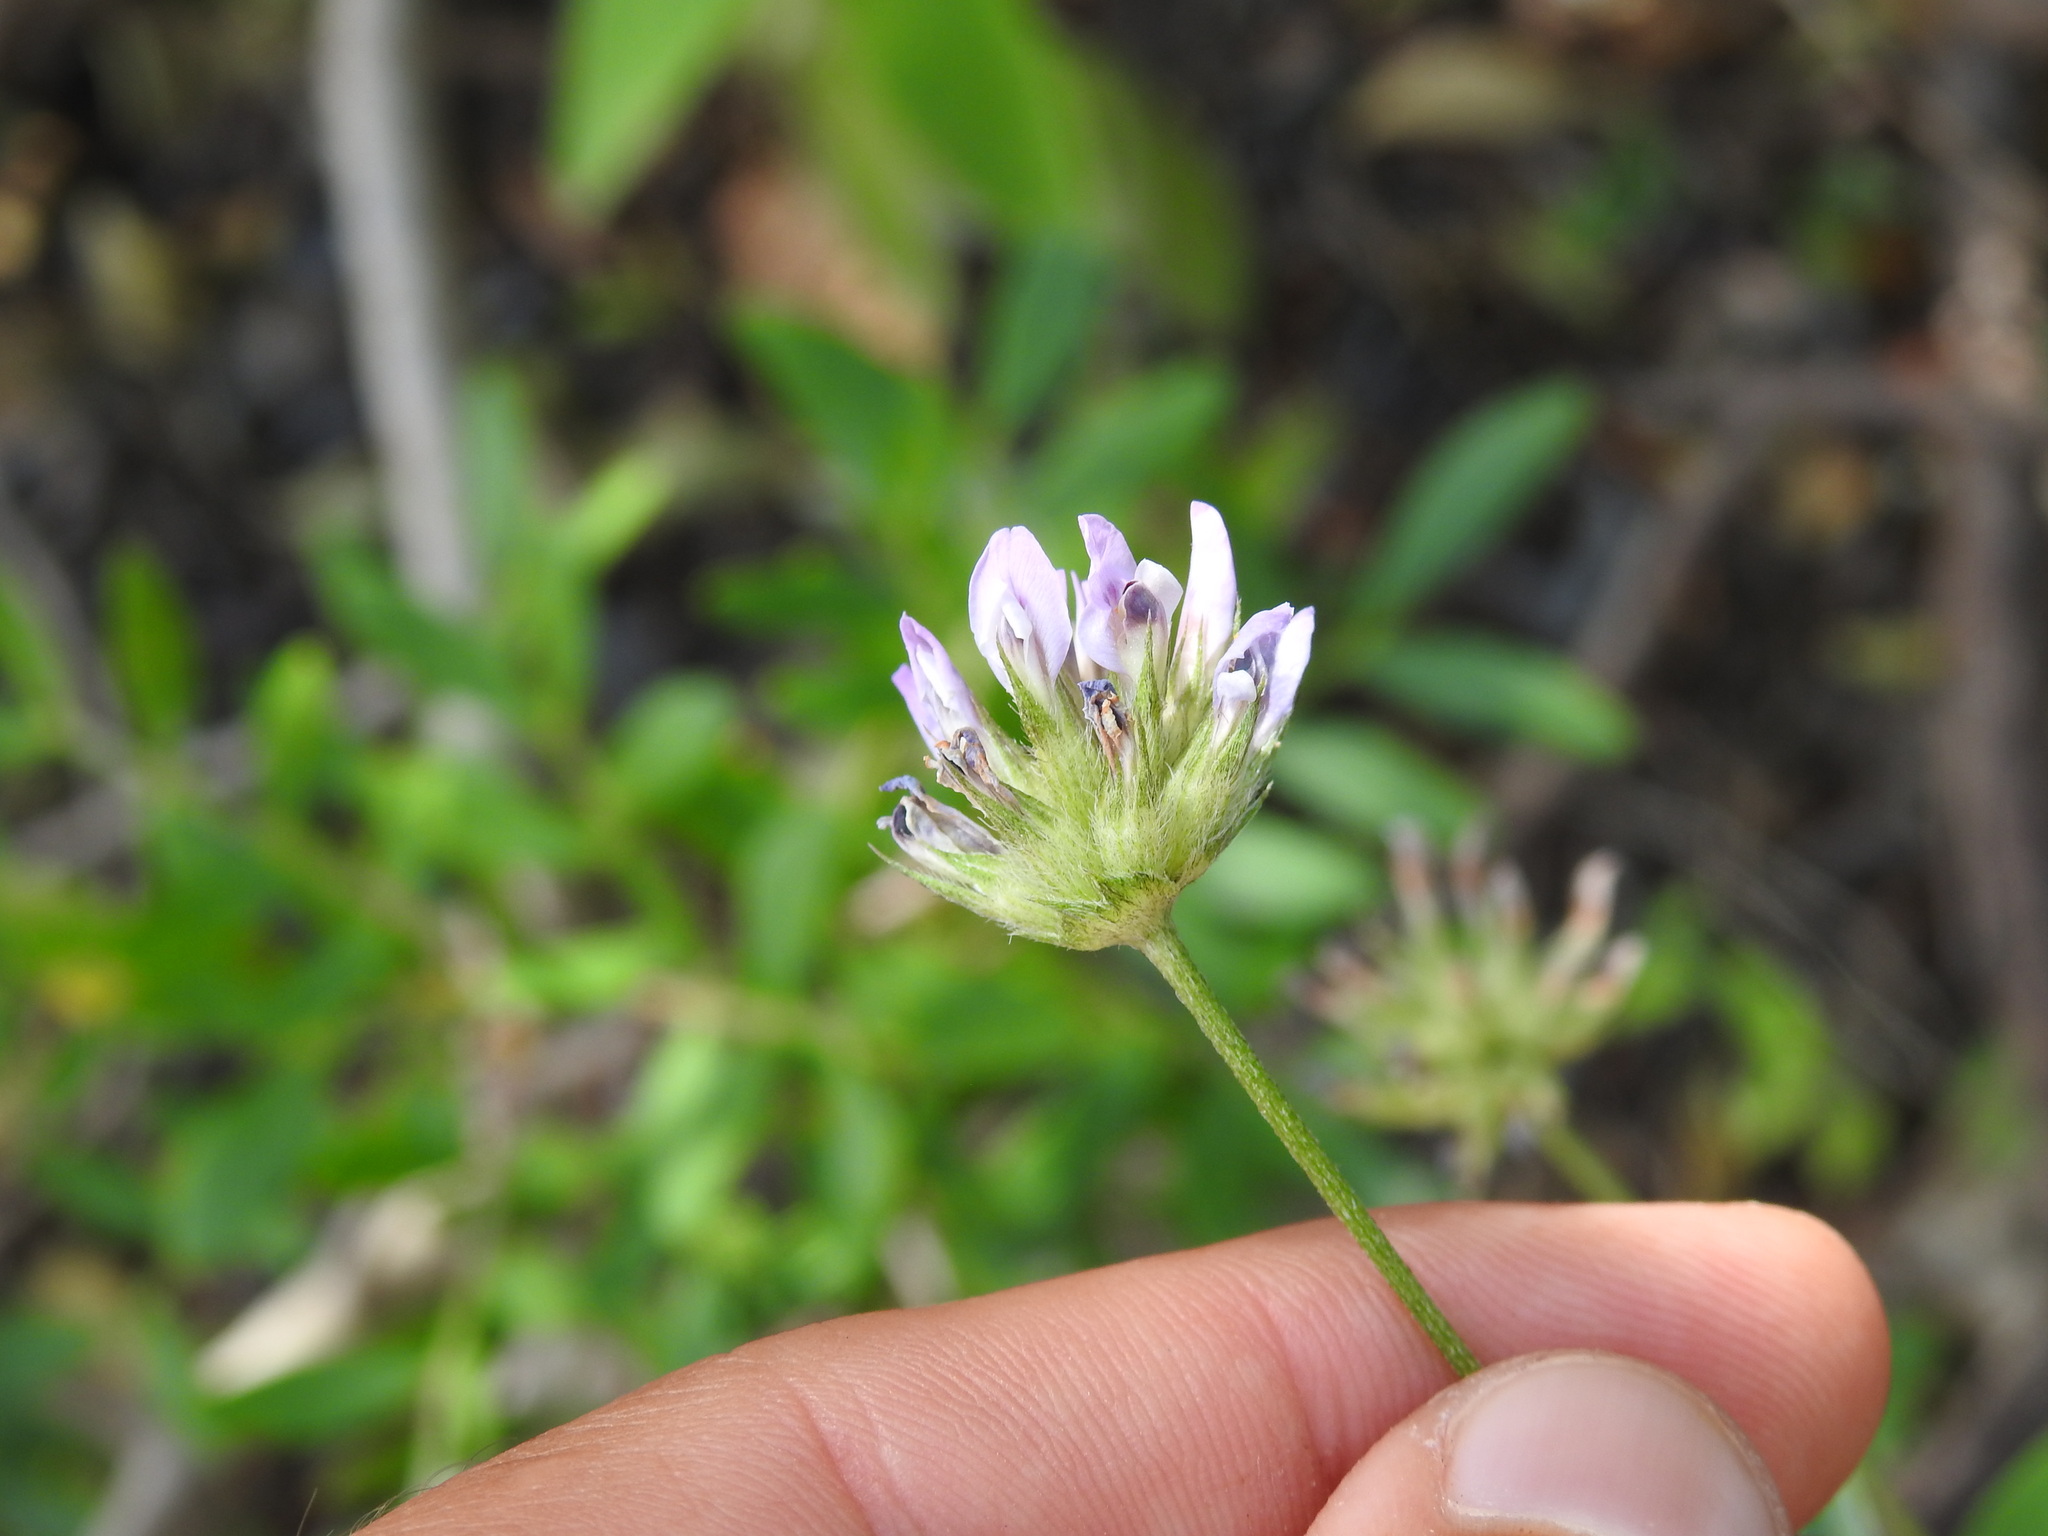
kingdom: Plantae
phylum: Tracheophyta
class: Magnoliopsida
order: Fabales
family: Fabaceae
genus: Bituminaria
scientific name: Bituminaria bituminosa
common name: Arabian pea
